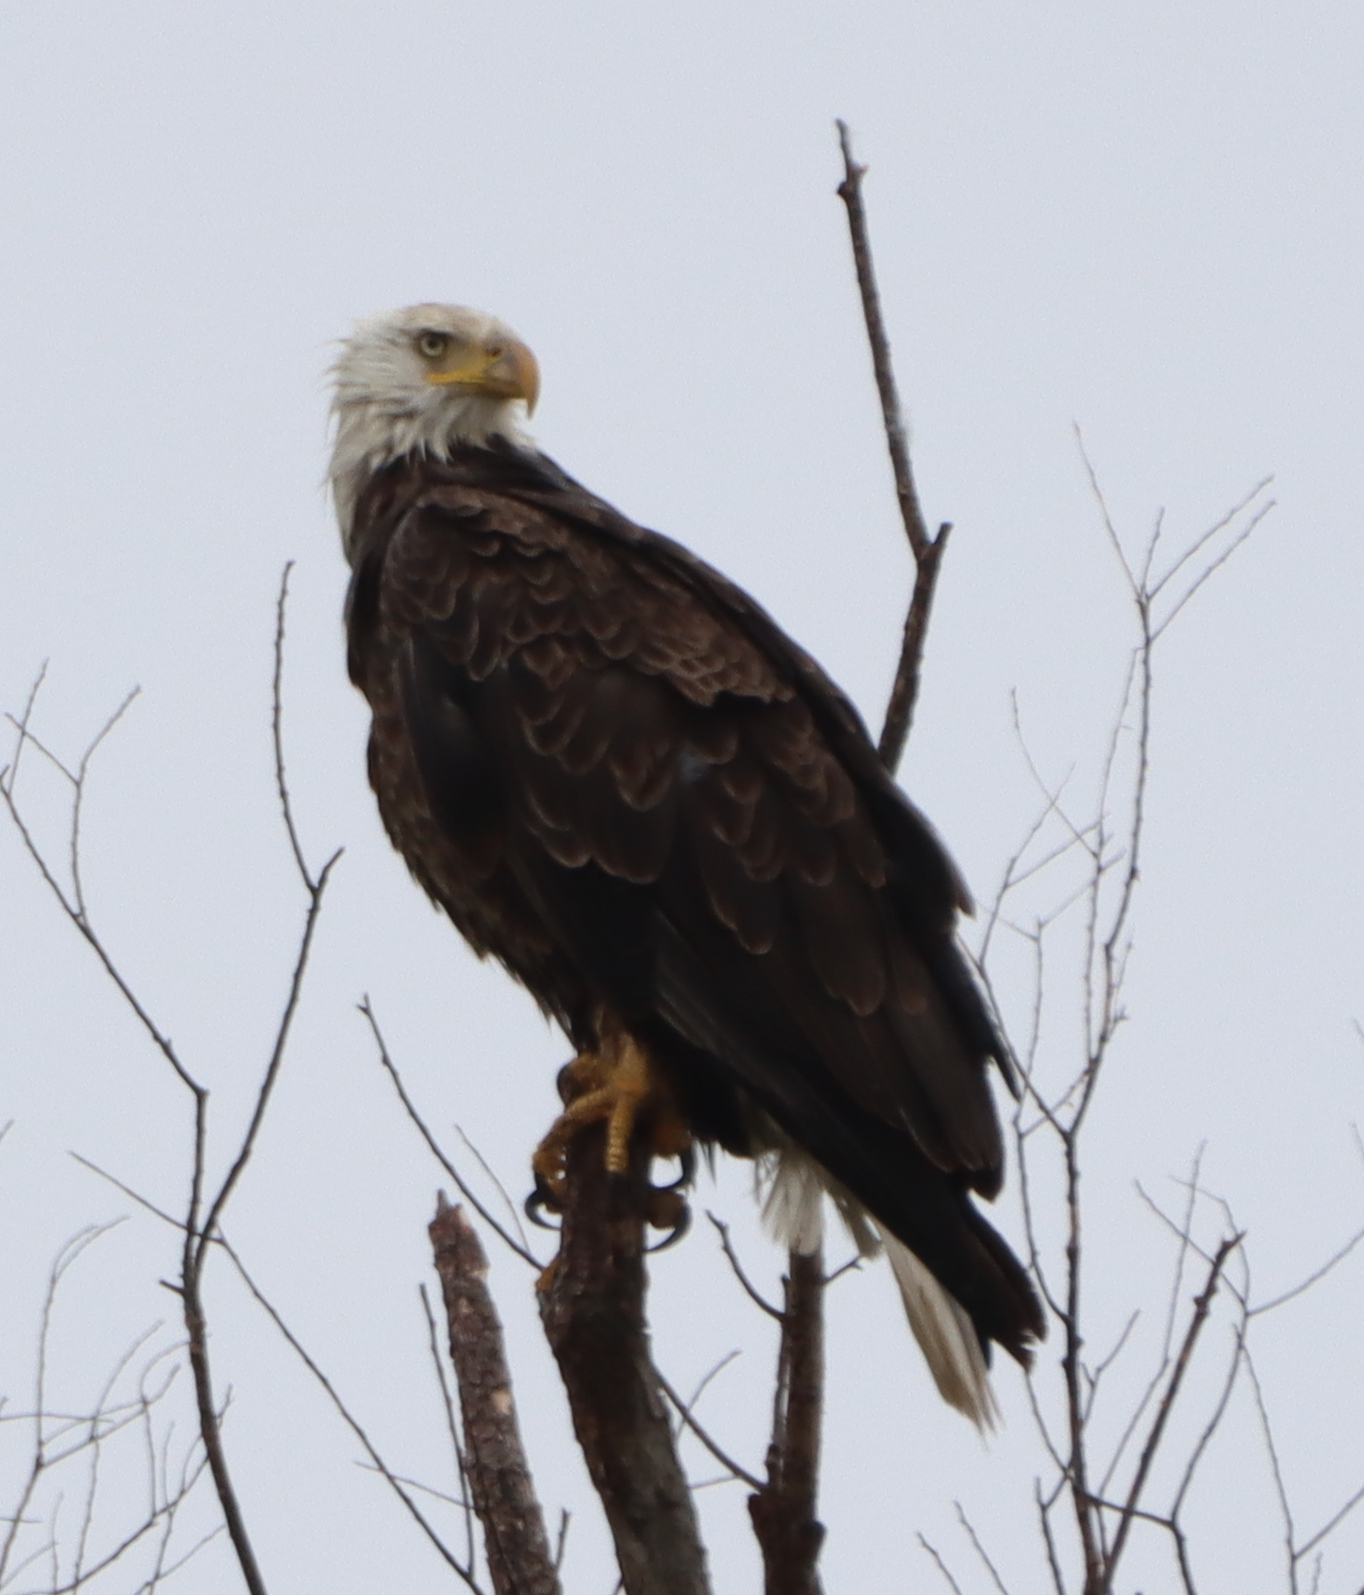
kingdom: Animalia
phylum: Chordata
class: Aves
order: Accipitriformes
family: Accipitridae
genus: Haliaeetus
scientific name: Haliaeetus leucocephalus
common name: Bald eagle
